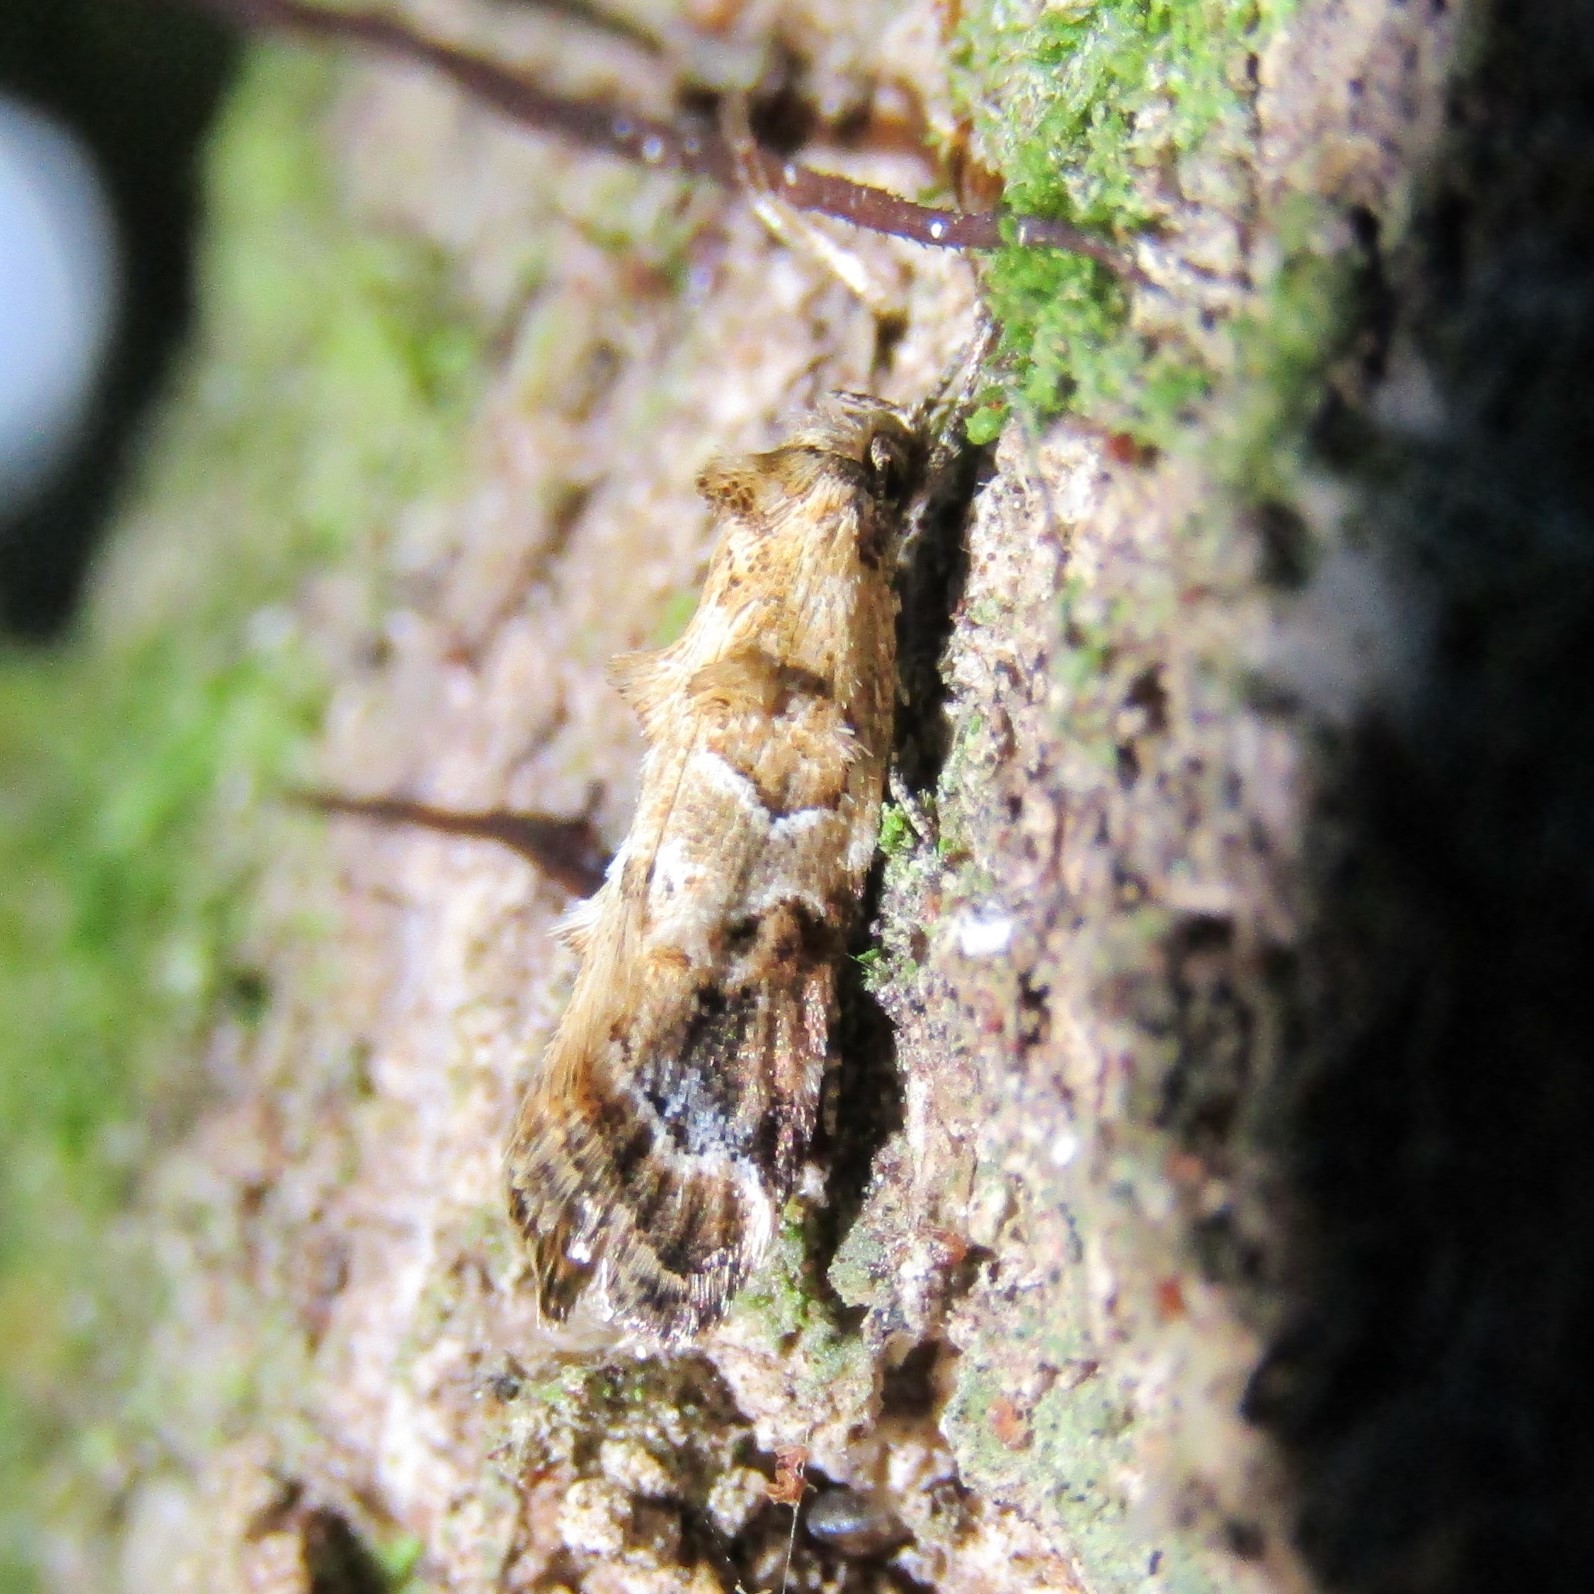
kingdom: Animalia
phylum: Arthropoda
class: Insecta
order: Lepidoptera
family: Oecophoridae
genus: Trachypepla
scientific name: Trachypepla aspidephora
